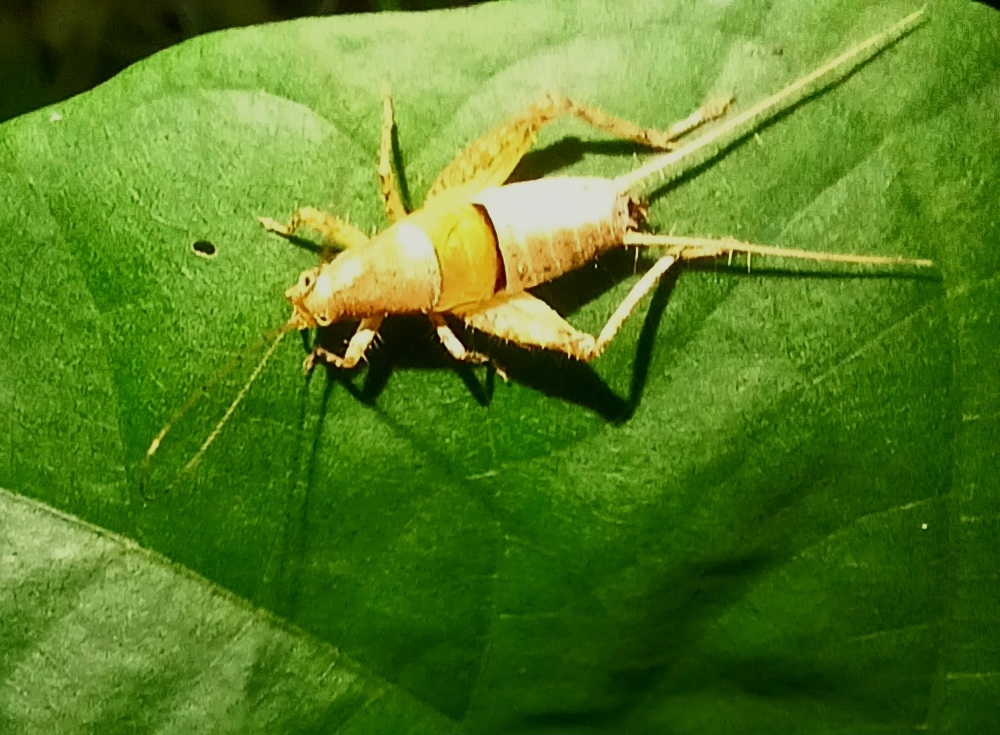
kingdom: Animalia
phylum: Arthropoda
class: Insecta
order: Orthoptera
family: Mogoplistidae
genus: Ornebius
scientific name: Ornebius novarae
